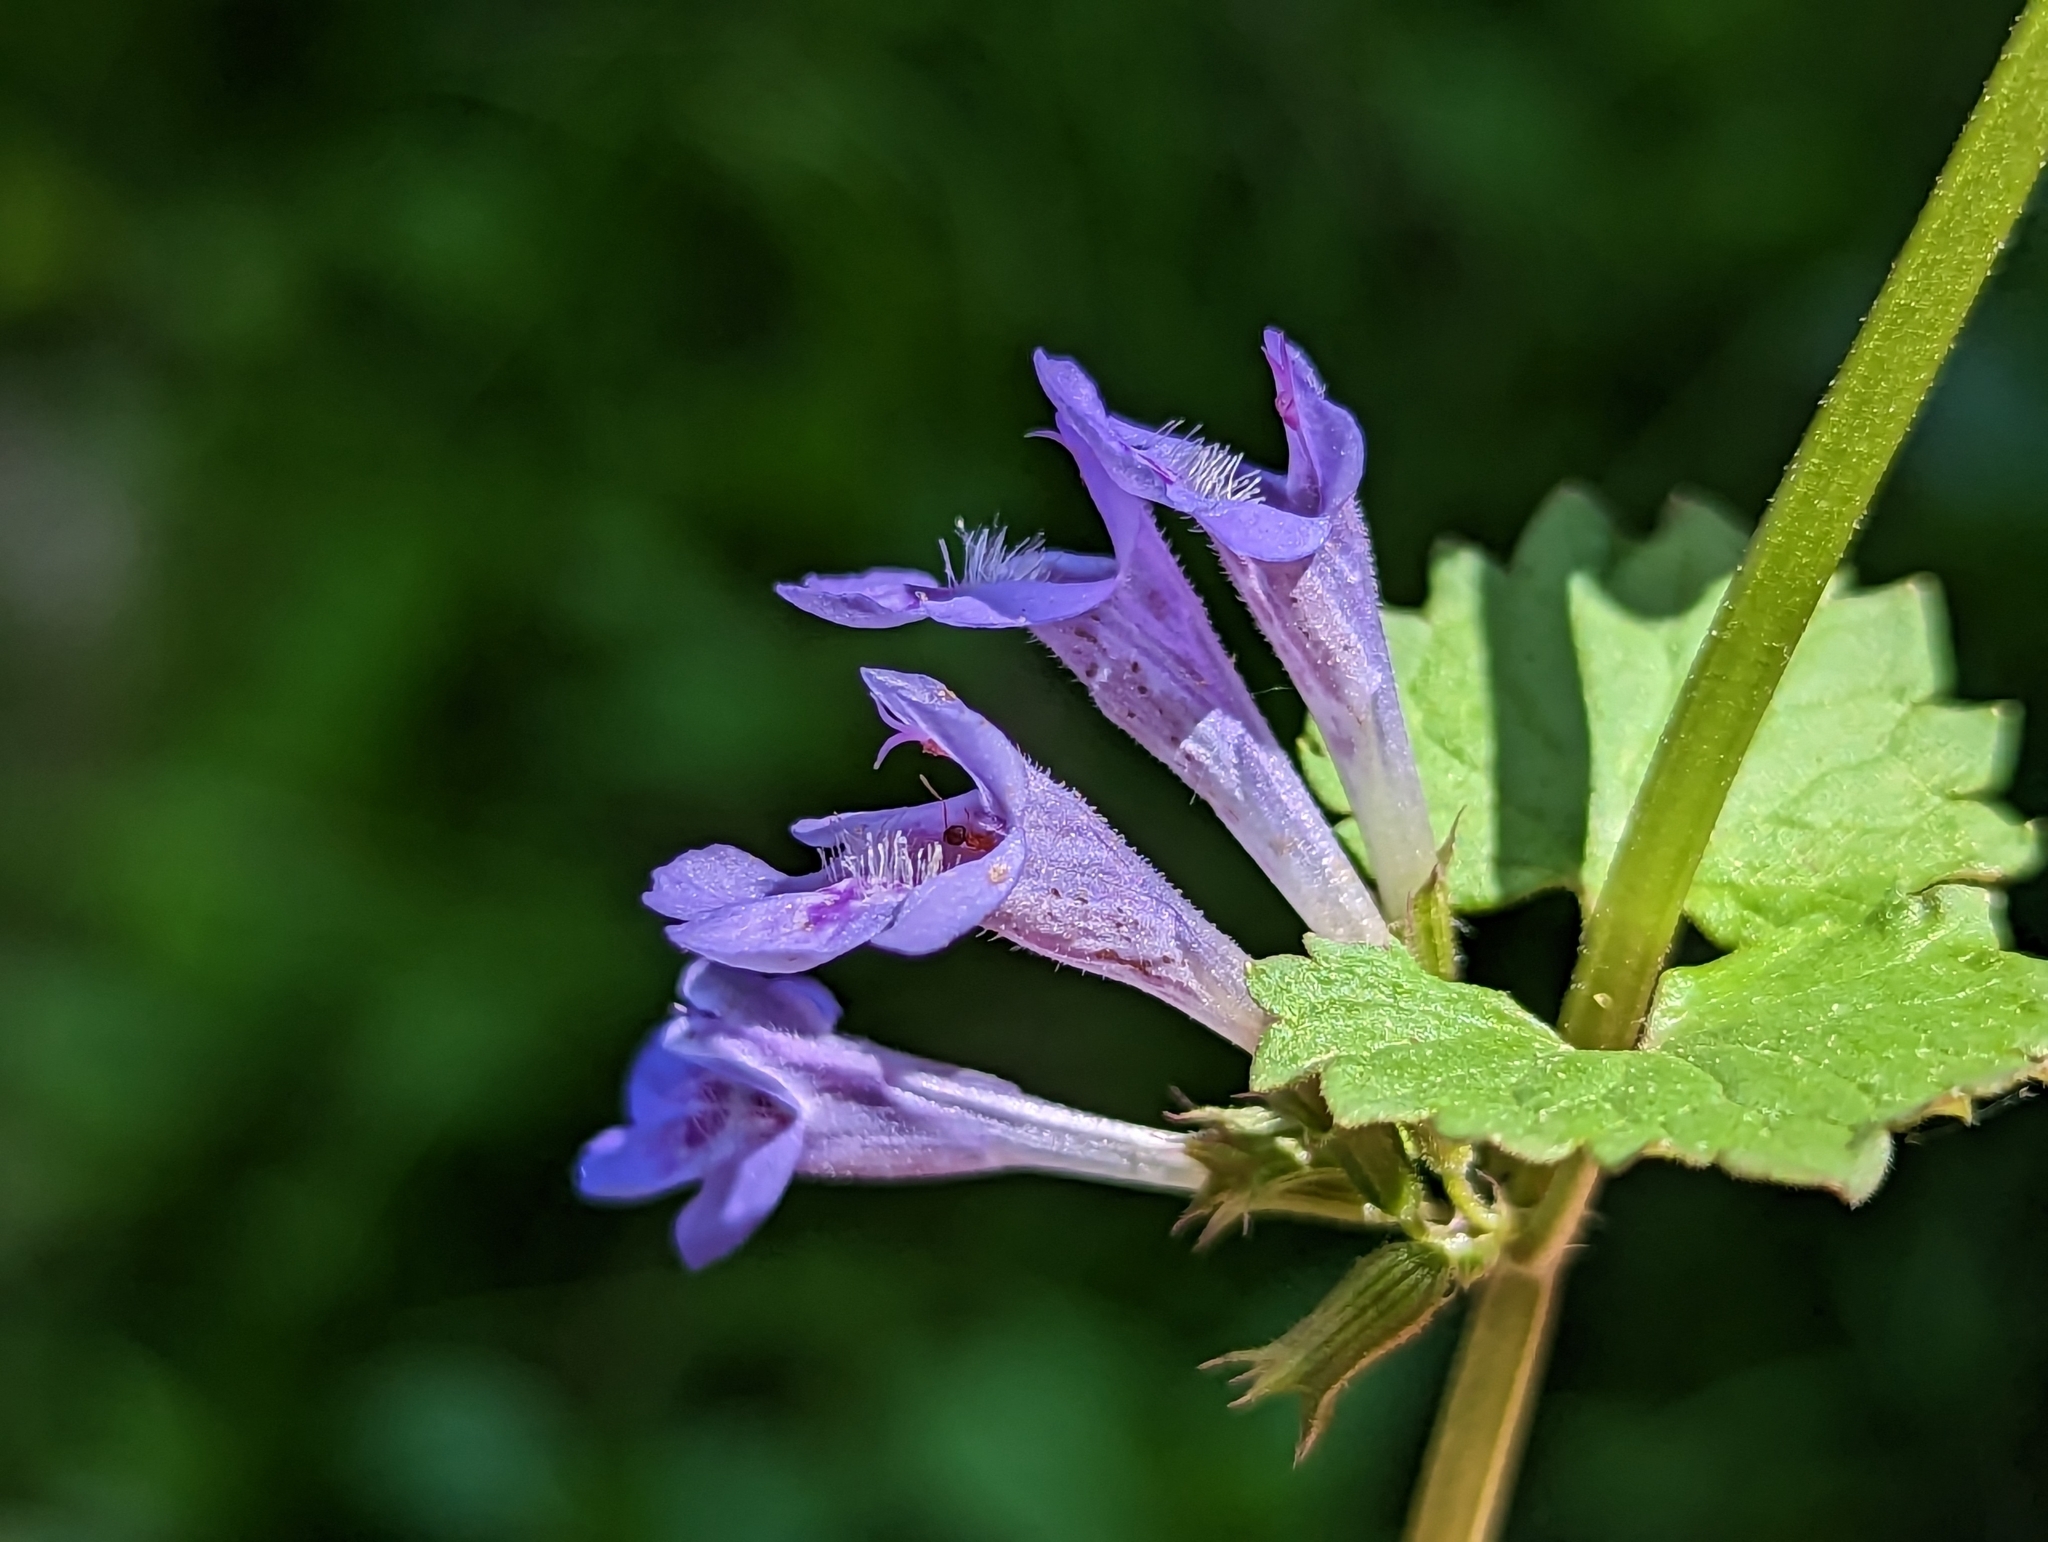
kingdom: Plantae
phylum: Tracheophyta
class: Magnoliopsida
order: Lamiales
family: Lamiaceae
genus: Glechoma
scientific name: Glechoma hederacea
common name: Ground ivy
